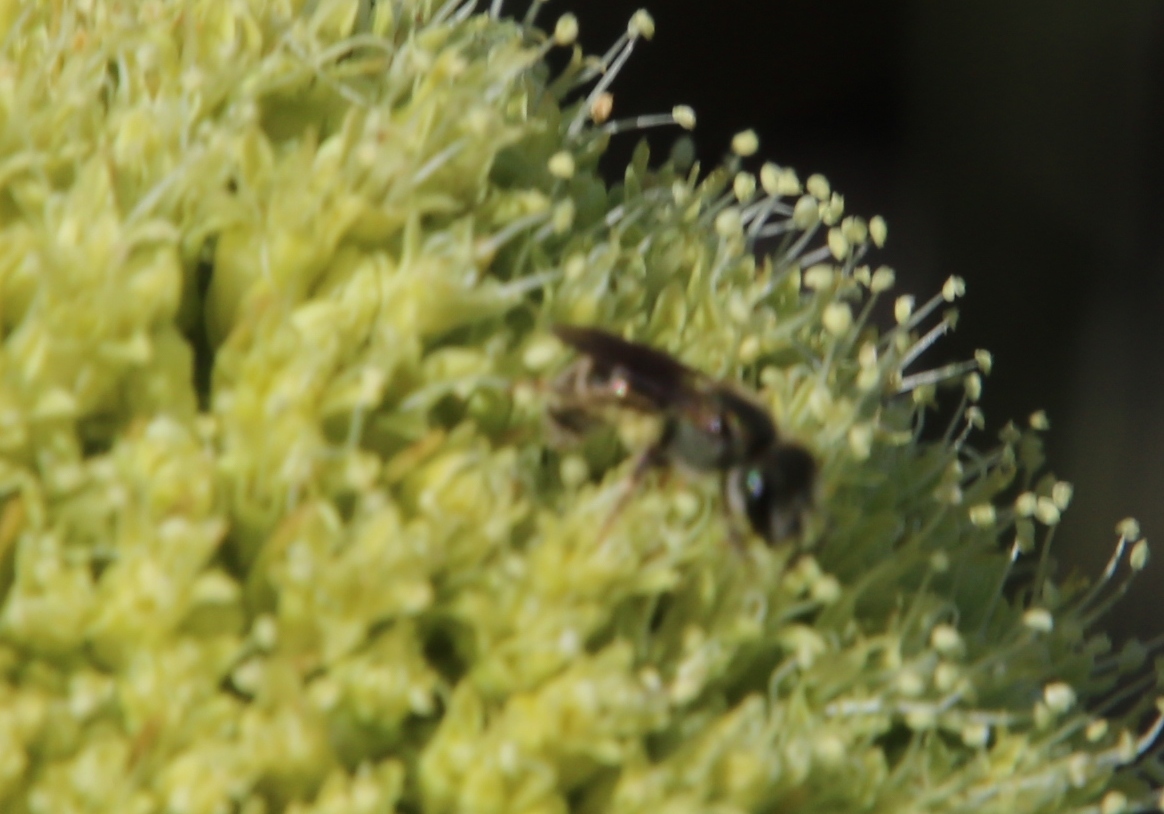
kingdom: Plantae
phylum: Tracheophyta
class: Magnoliopsida
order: Apiales
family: Apiaceae
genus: Hermas
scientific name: Hermas villosa
